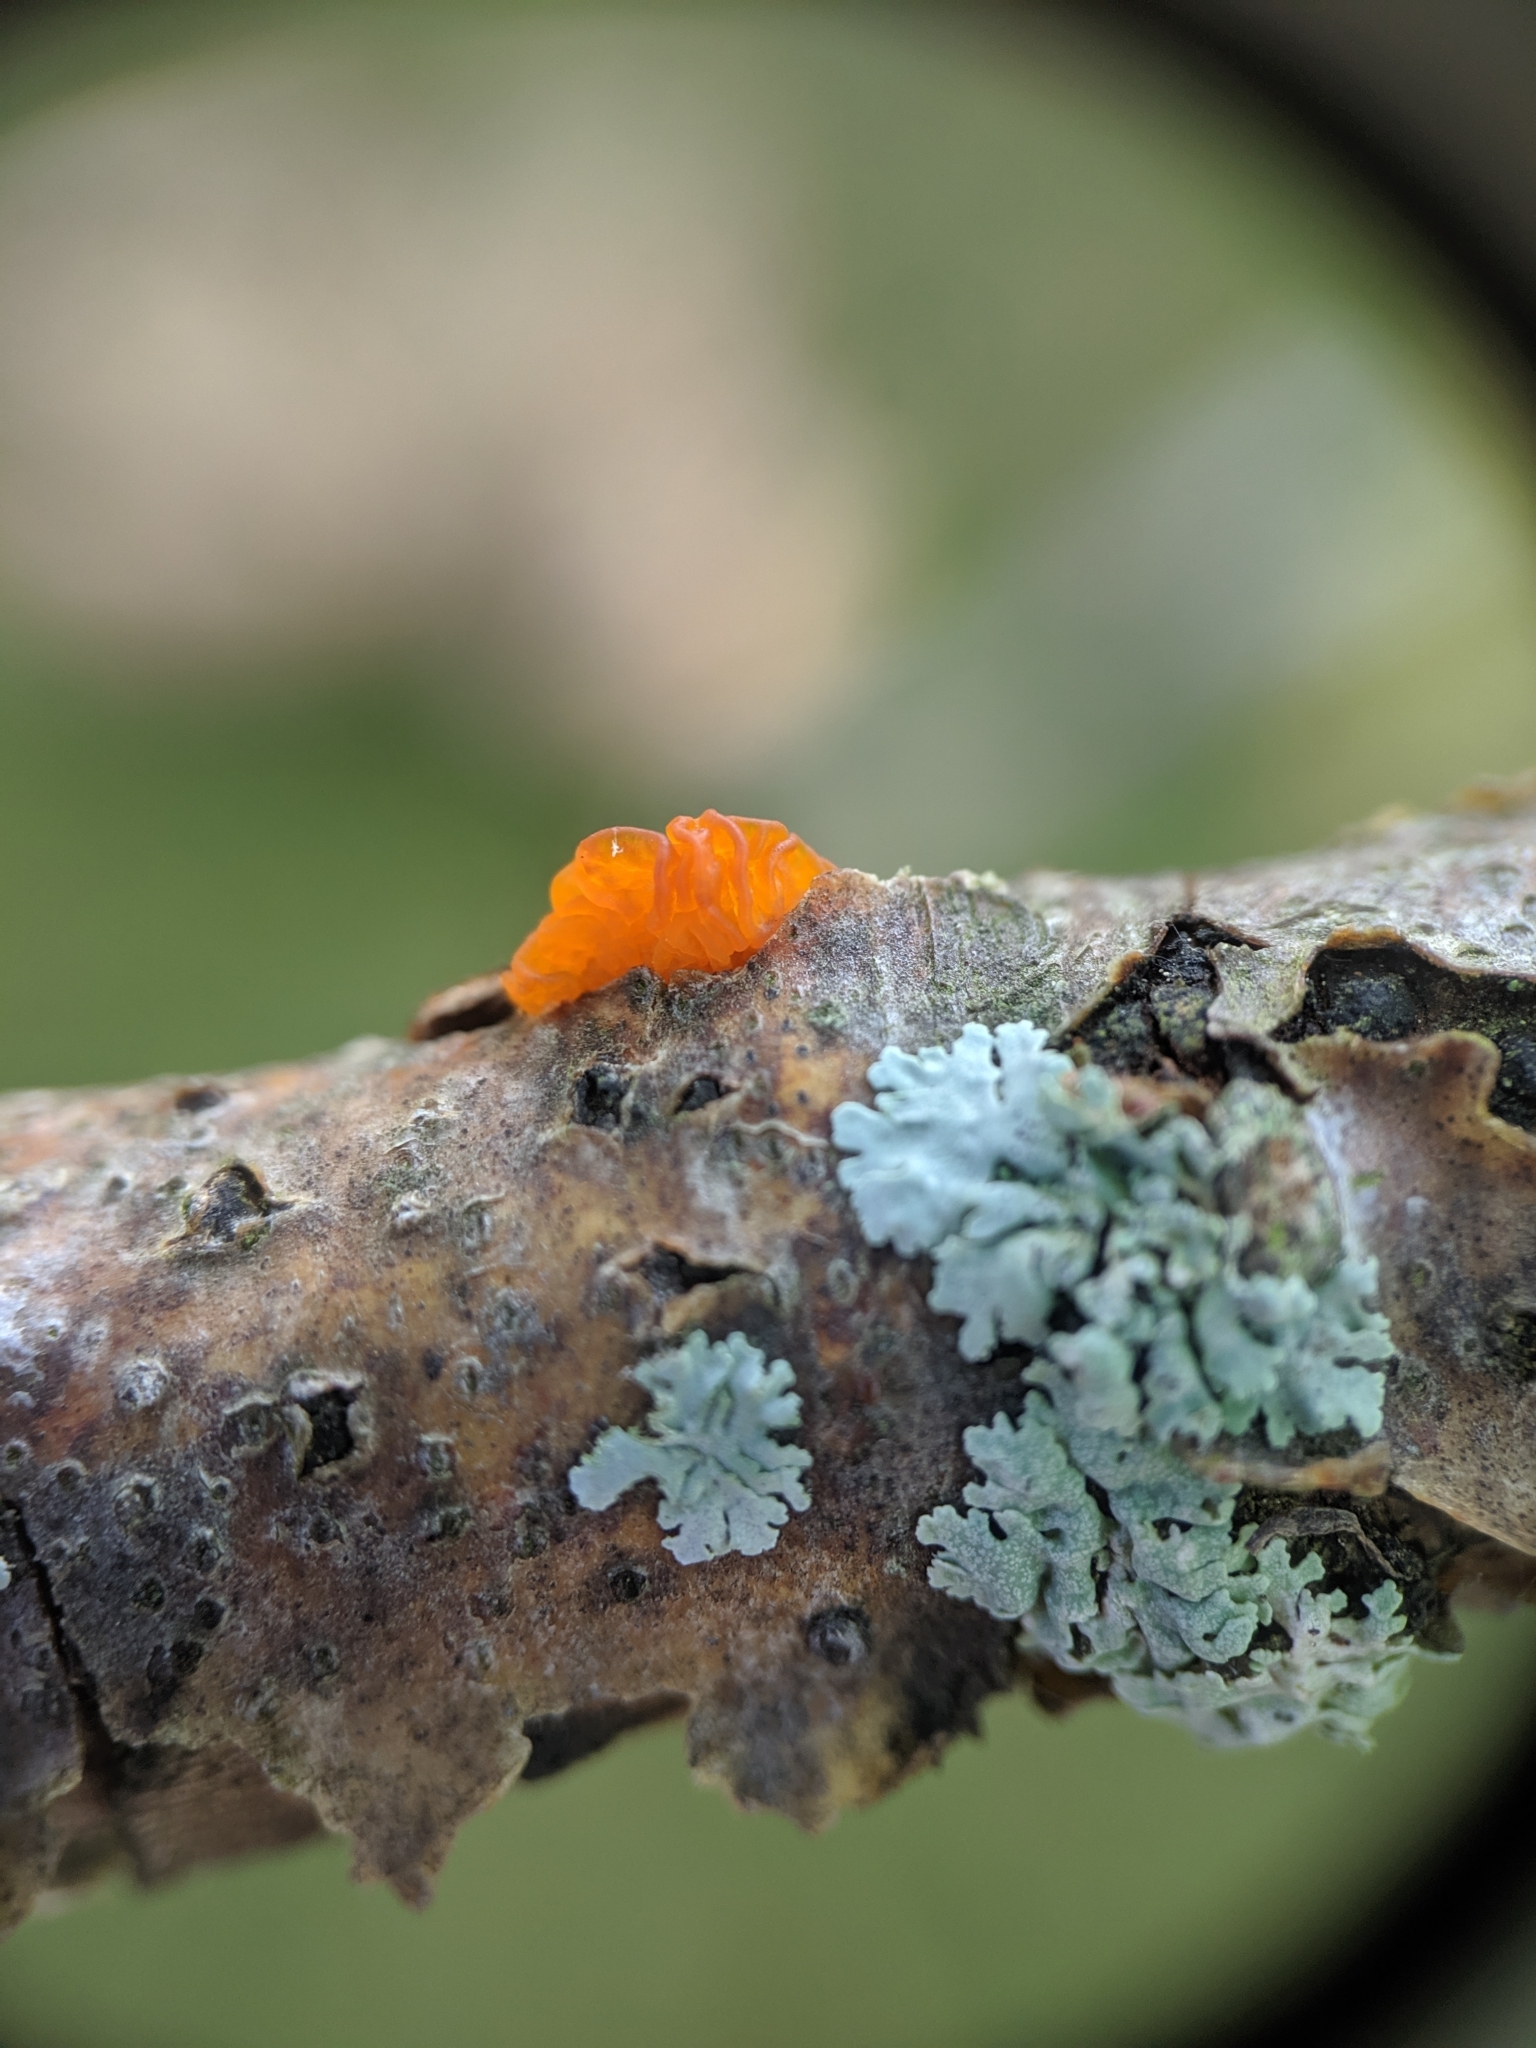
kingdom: Fungi
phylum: Basidiomycota
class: Tremellomycetes
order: Tremellales
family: Tremellaceae
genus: Tremella
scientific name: Tremella mesenterica
